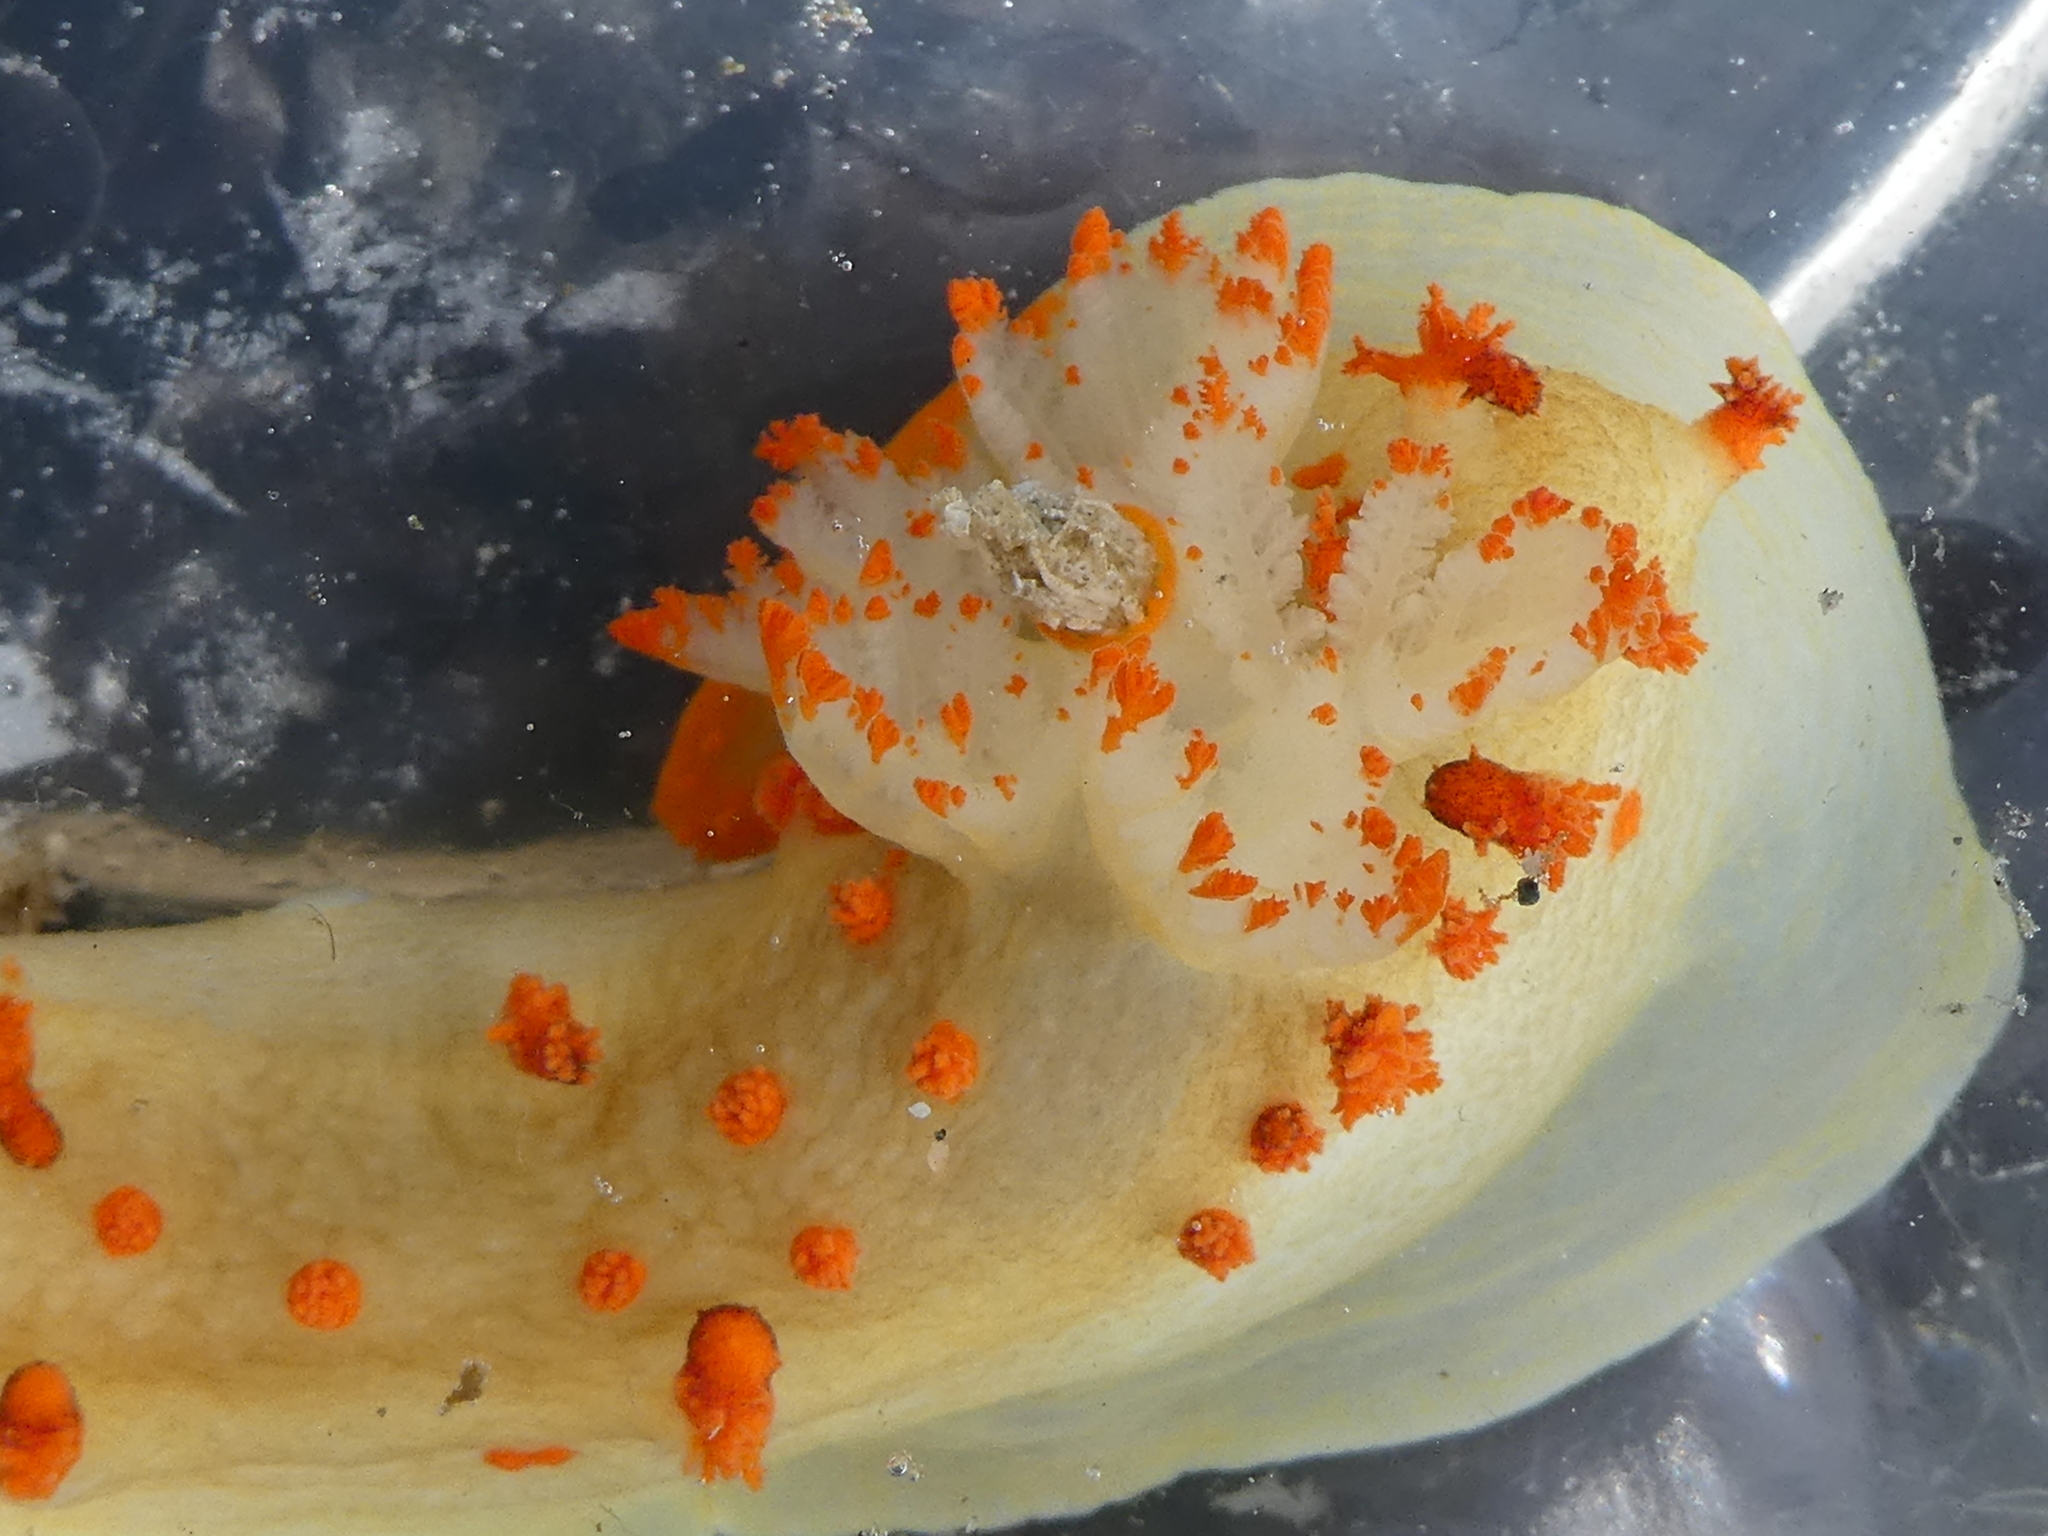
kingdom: Animalia
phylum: Mollusca
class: Gastropoda
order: Nudibranchia
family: Polyceridae
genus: Triopha
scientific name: Triopha modesta
